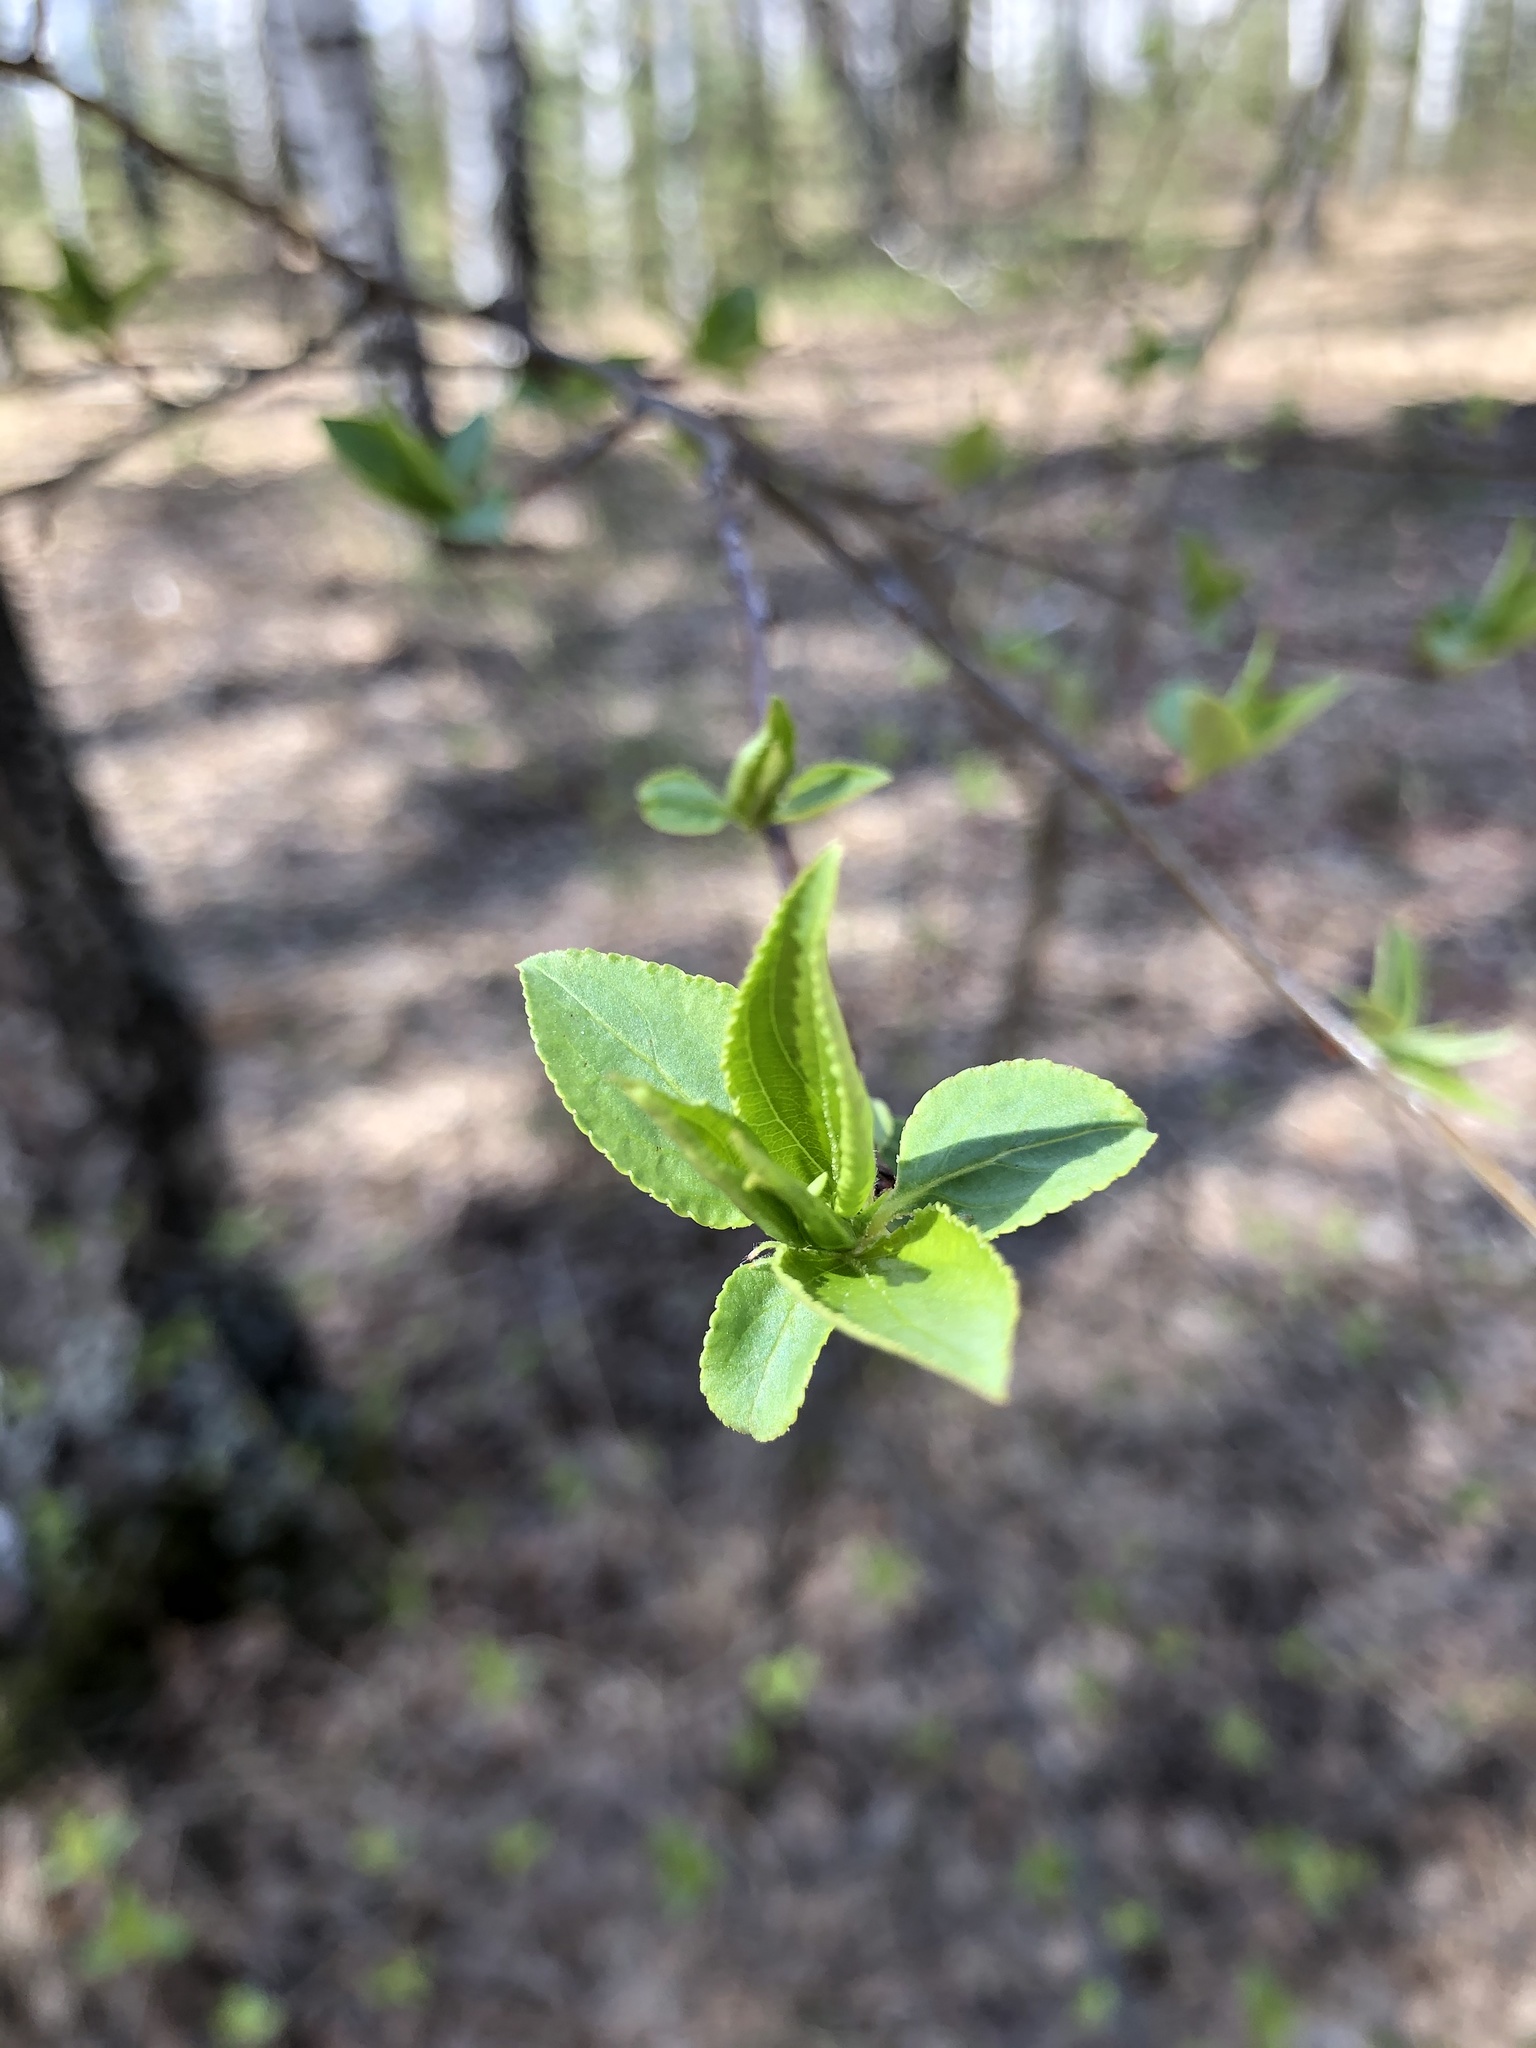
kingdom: Plantae
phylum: Tracheophyta
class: Magnoliopsida
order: Rosales
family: Rosaceae
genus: Malus
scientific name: Malus baccata
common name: Siberian crab
